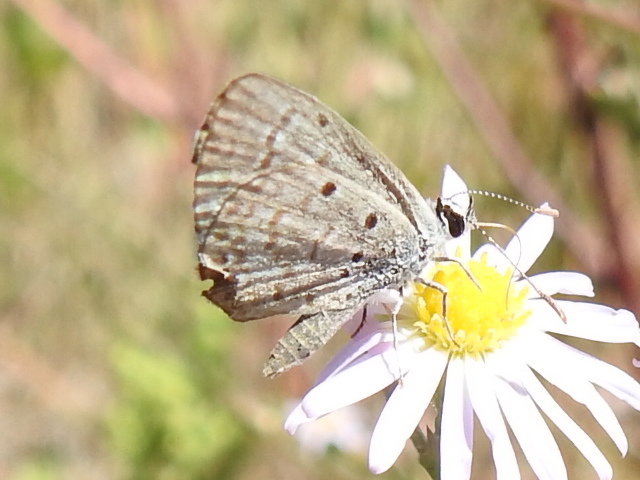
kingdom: Animalia
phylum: Arthropoda
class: Insecta
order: Lepidoptera
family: Lycaenidae
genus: Hemiargus
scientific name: Hemiargus ceraunus
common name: Ceraunus blue
